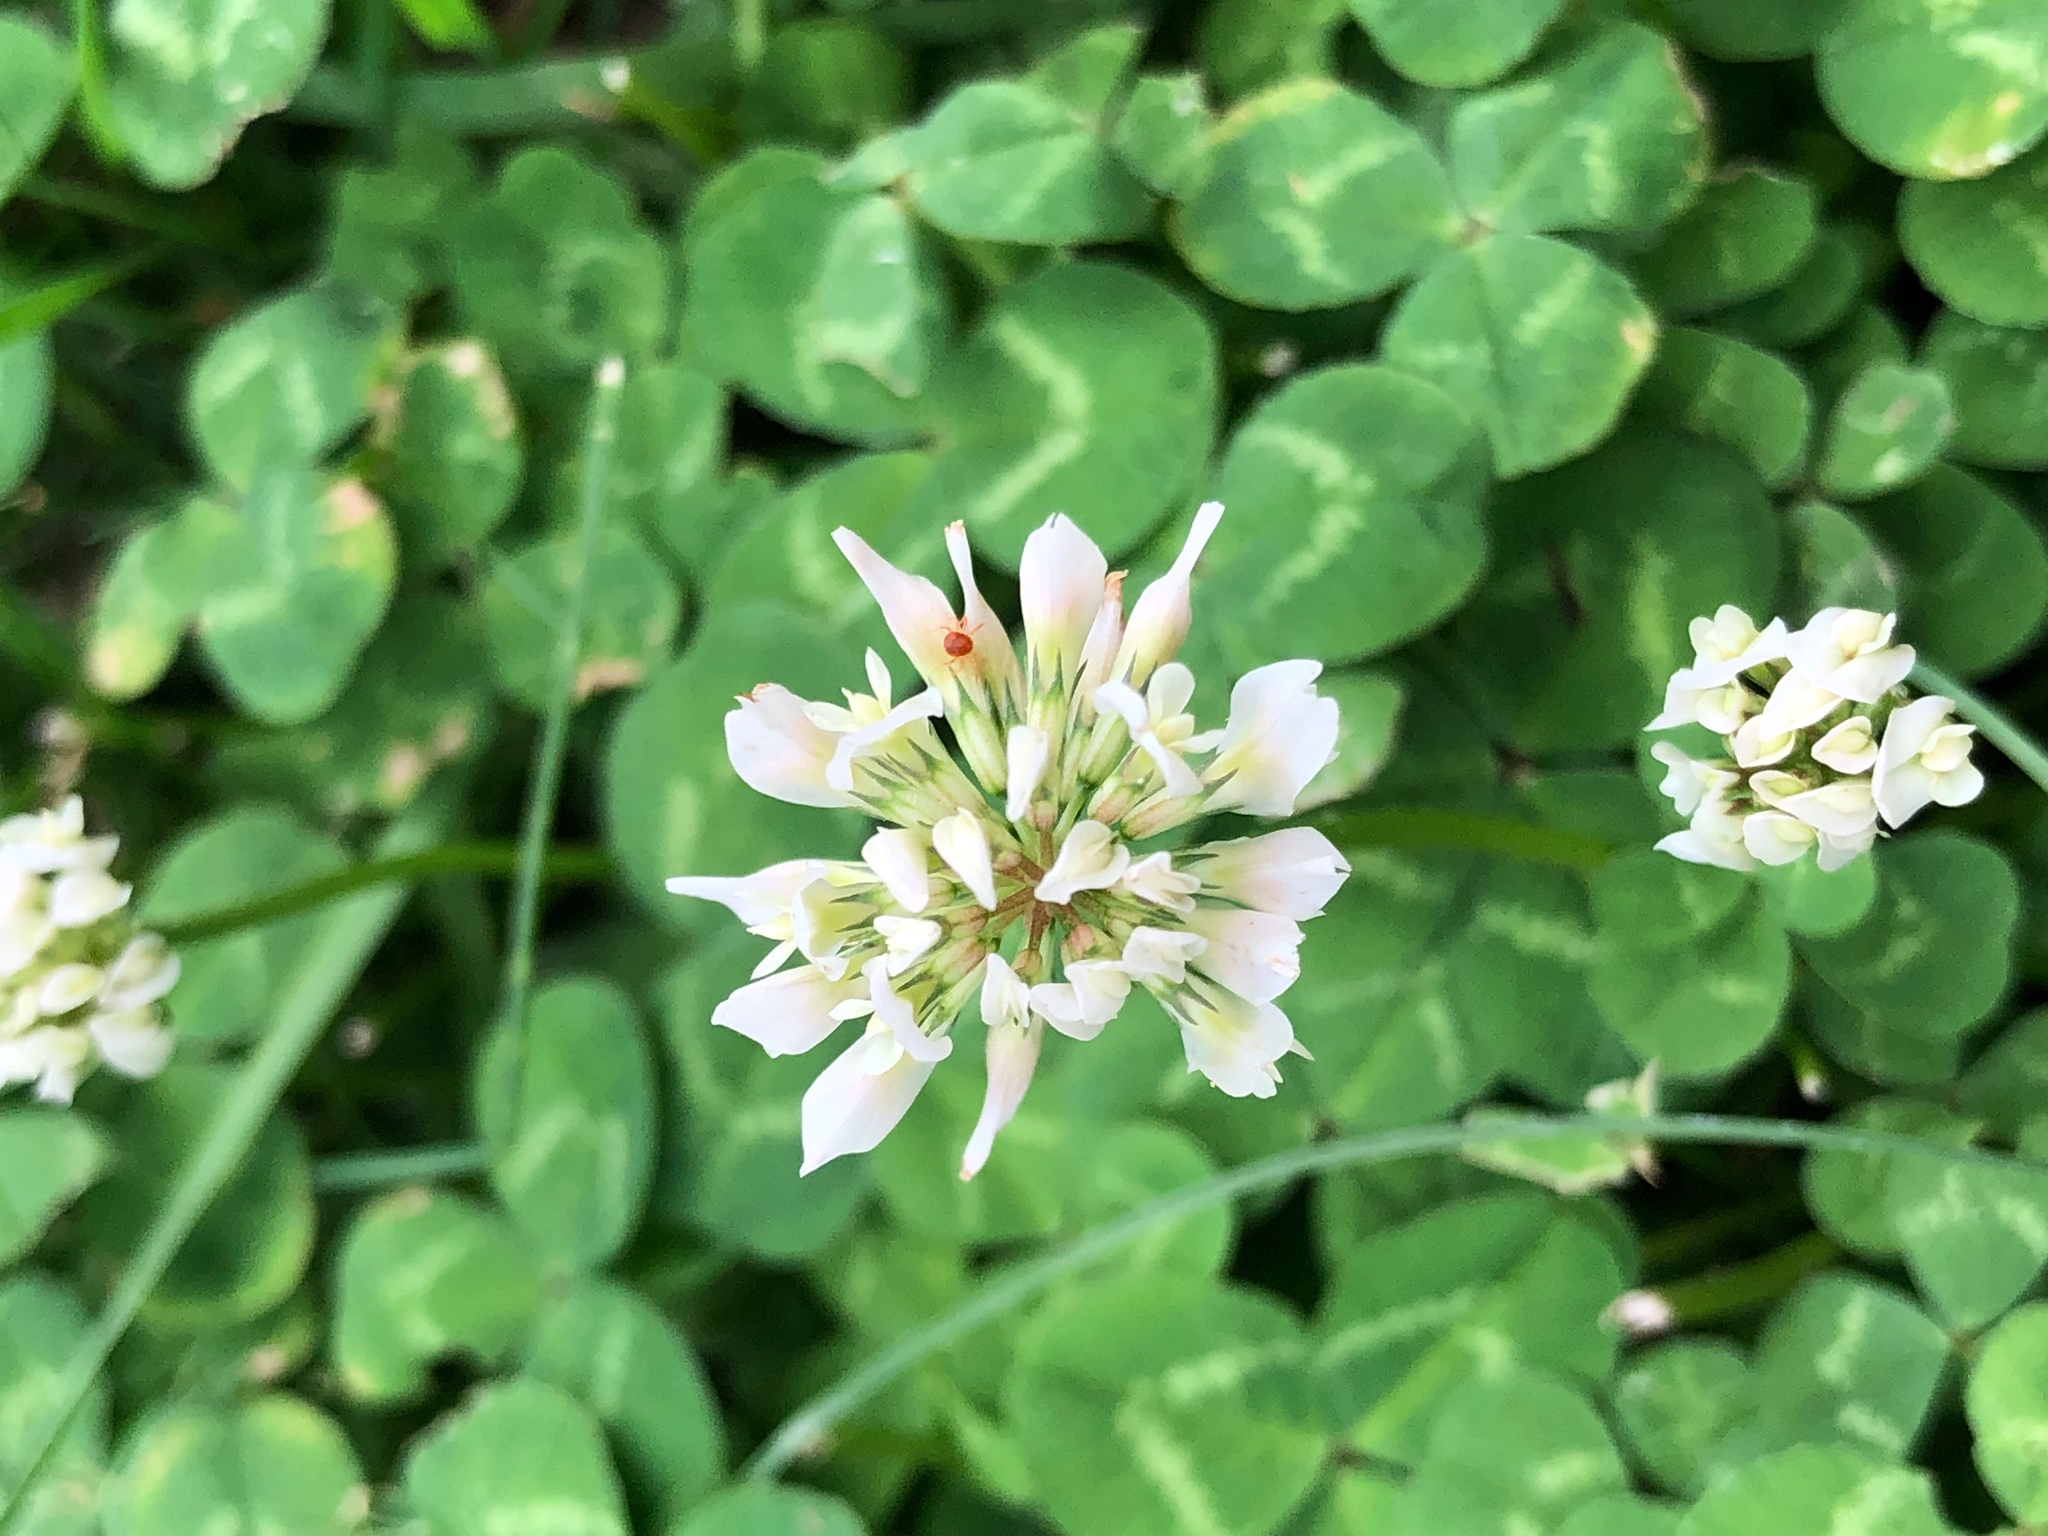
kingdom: Plantae
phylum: Tracheophyta
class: Magnoliopsida
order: Fabales
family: Fabaceae
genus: Trifolium
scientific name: Trifolium repens
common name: White clover
